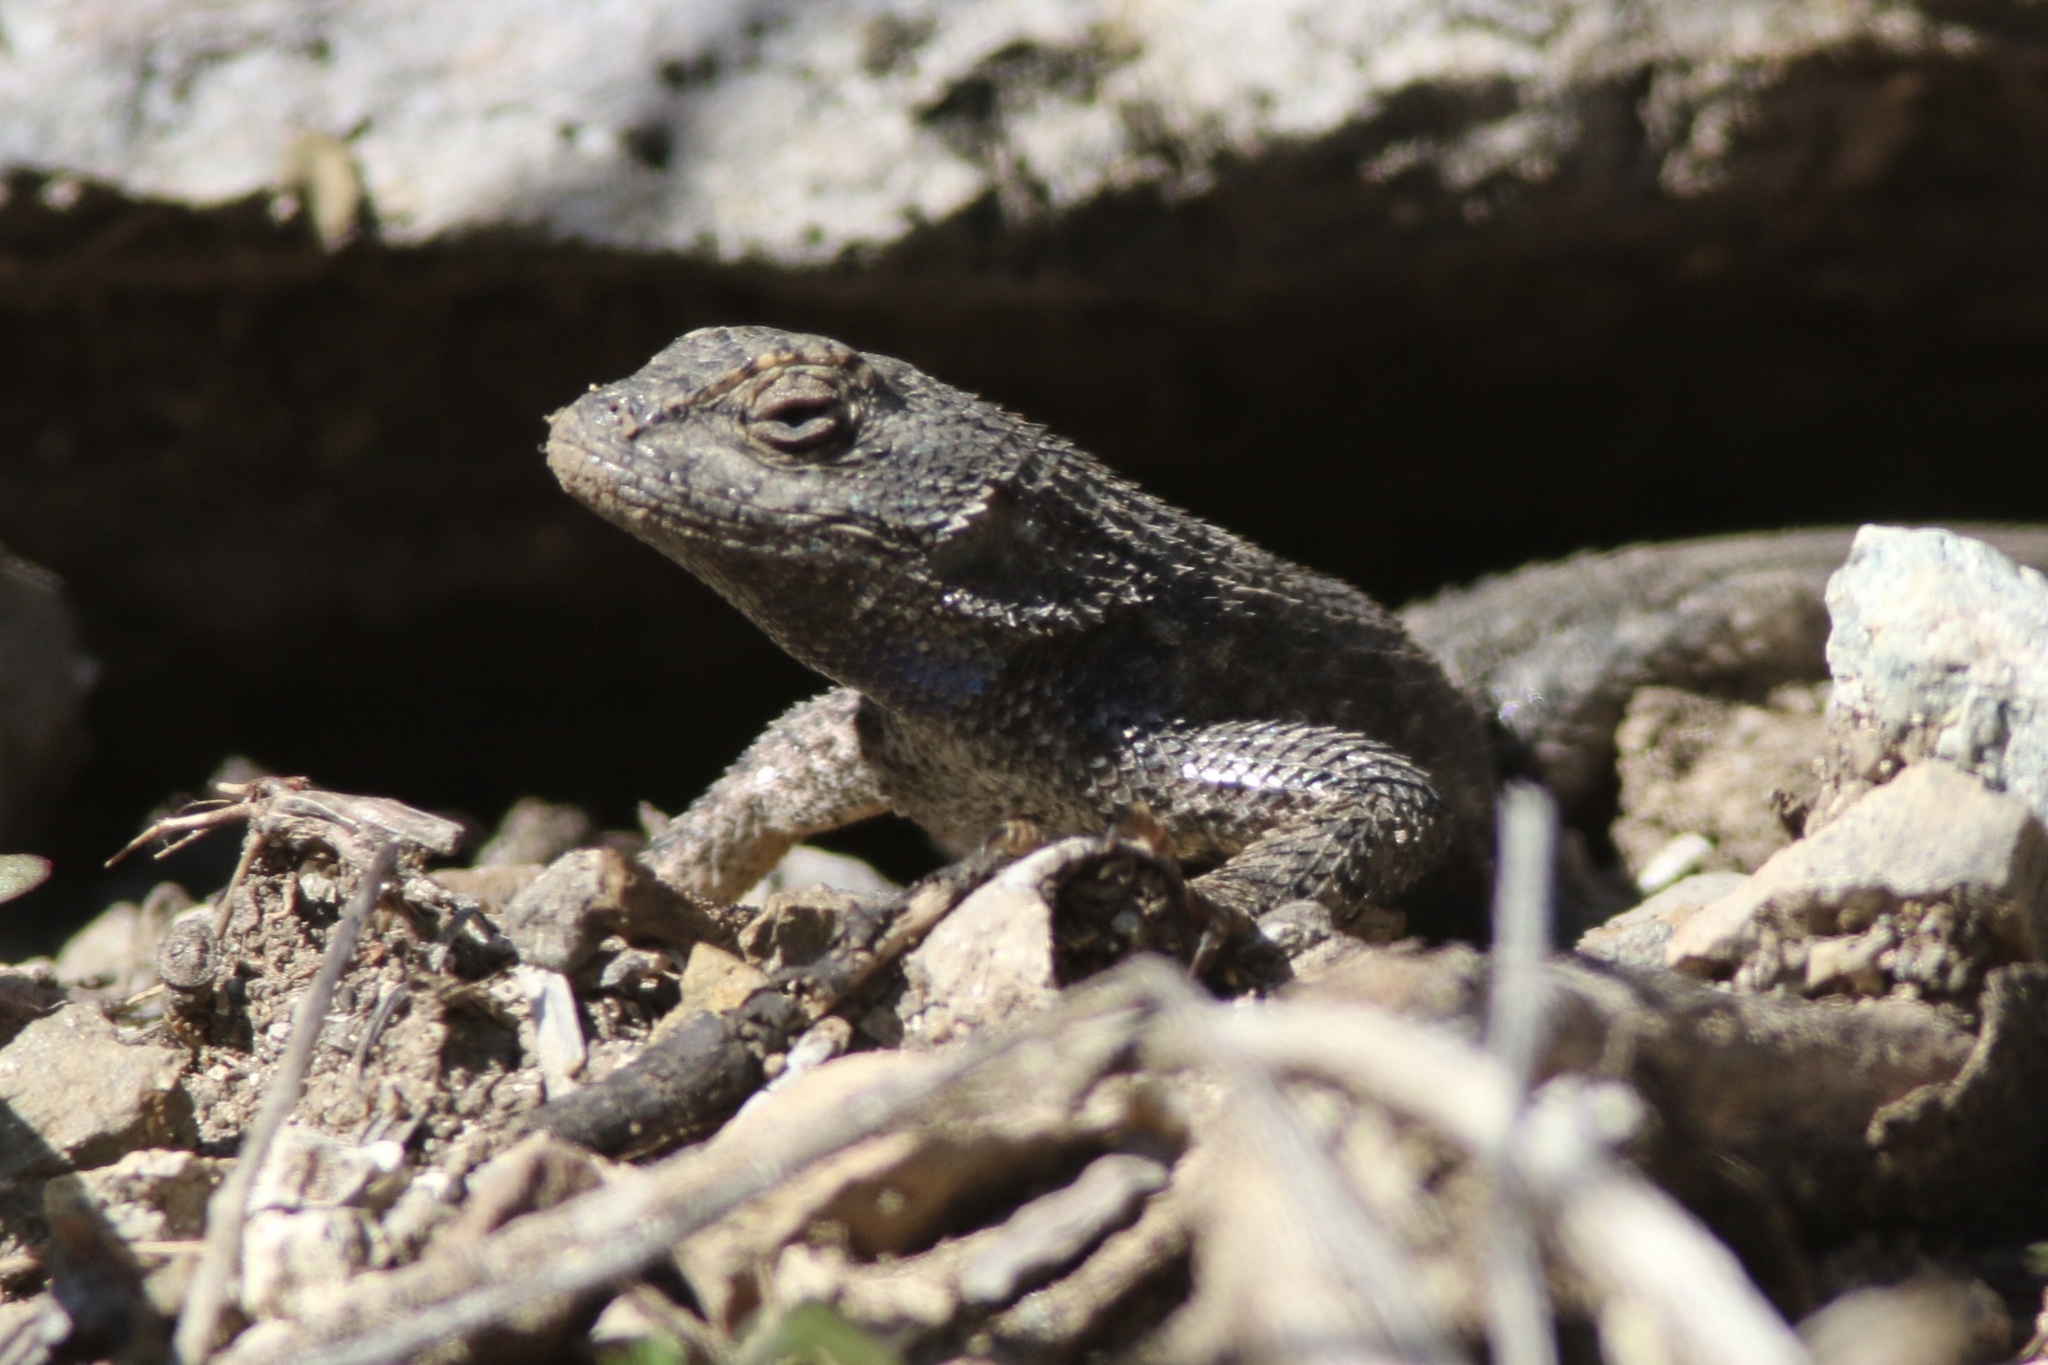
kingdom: Animalia
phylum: Chordata
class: Squamata
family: Phrynosomatidae
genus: Sceloporus
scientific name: Sceloporus occidentalis
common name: Western fence lizard
